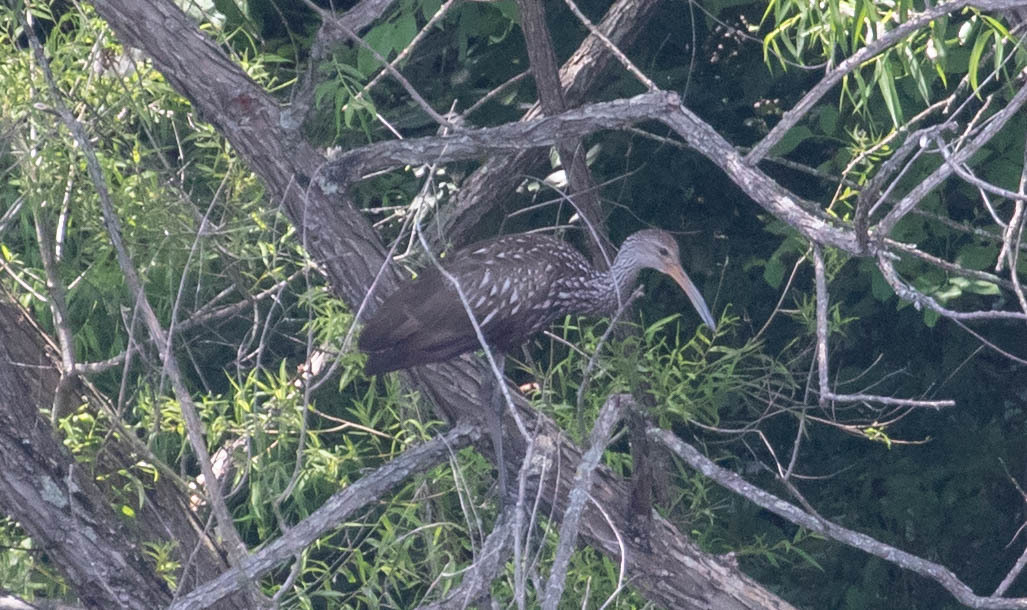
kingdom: Animalia
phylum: Chordata
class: Aves
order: Gruiformes
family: Aramidae
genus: Aramus
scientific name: Aramus guarauna
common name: Limpkin
